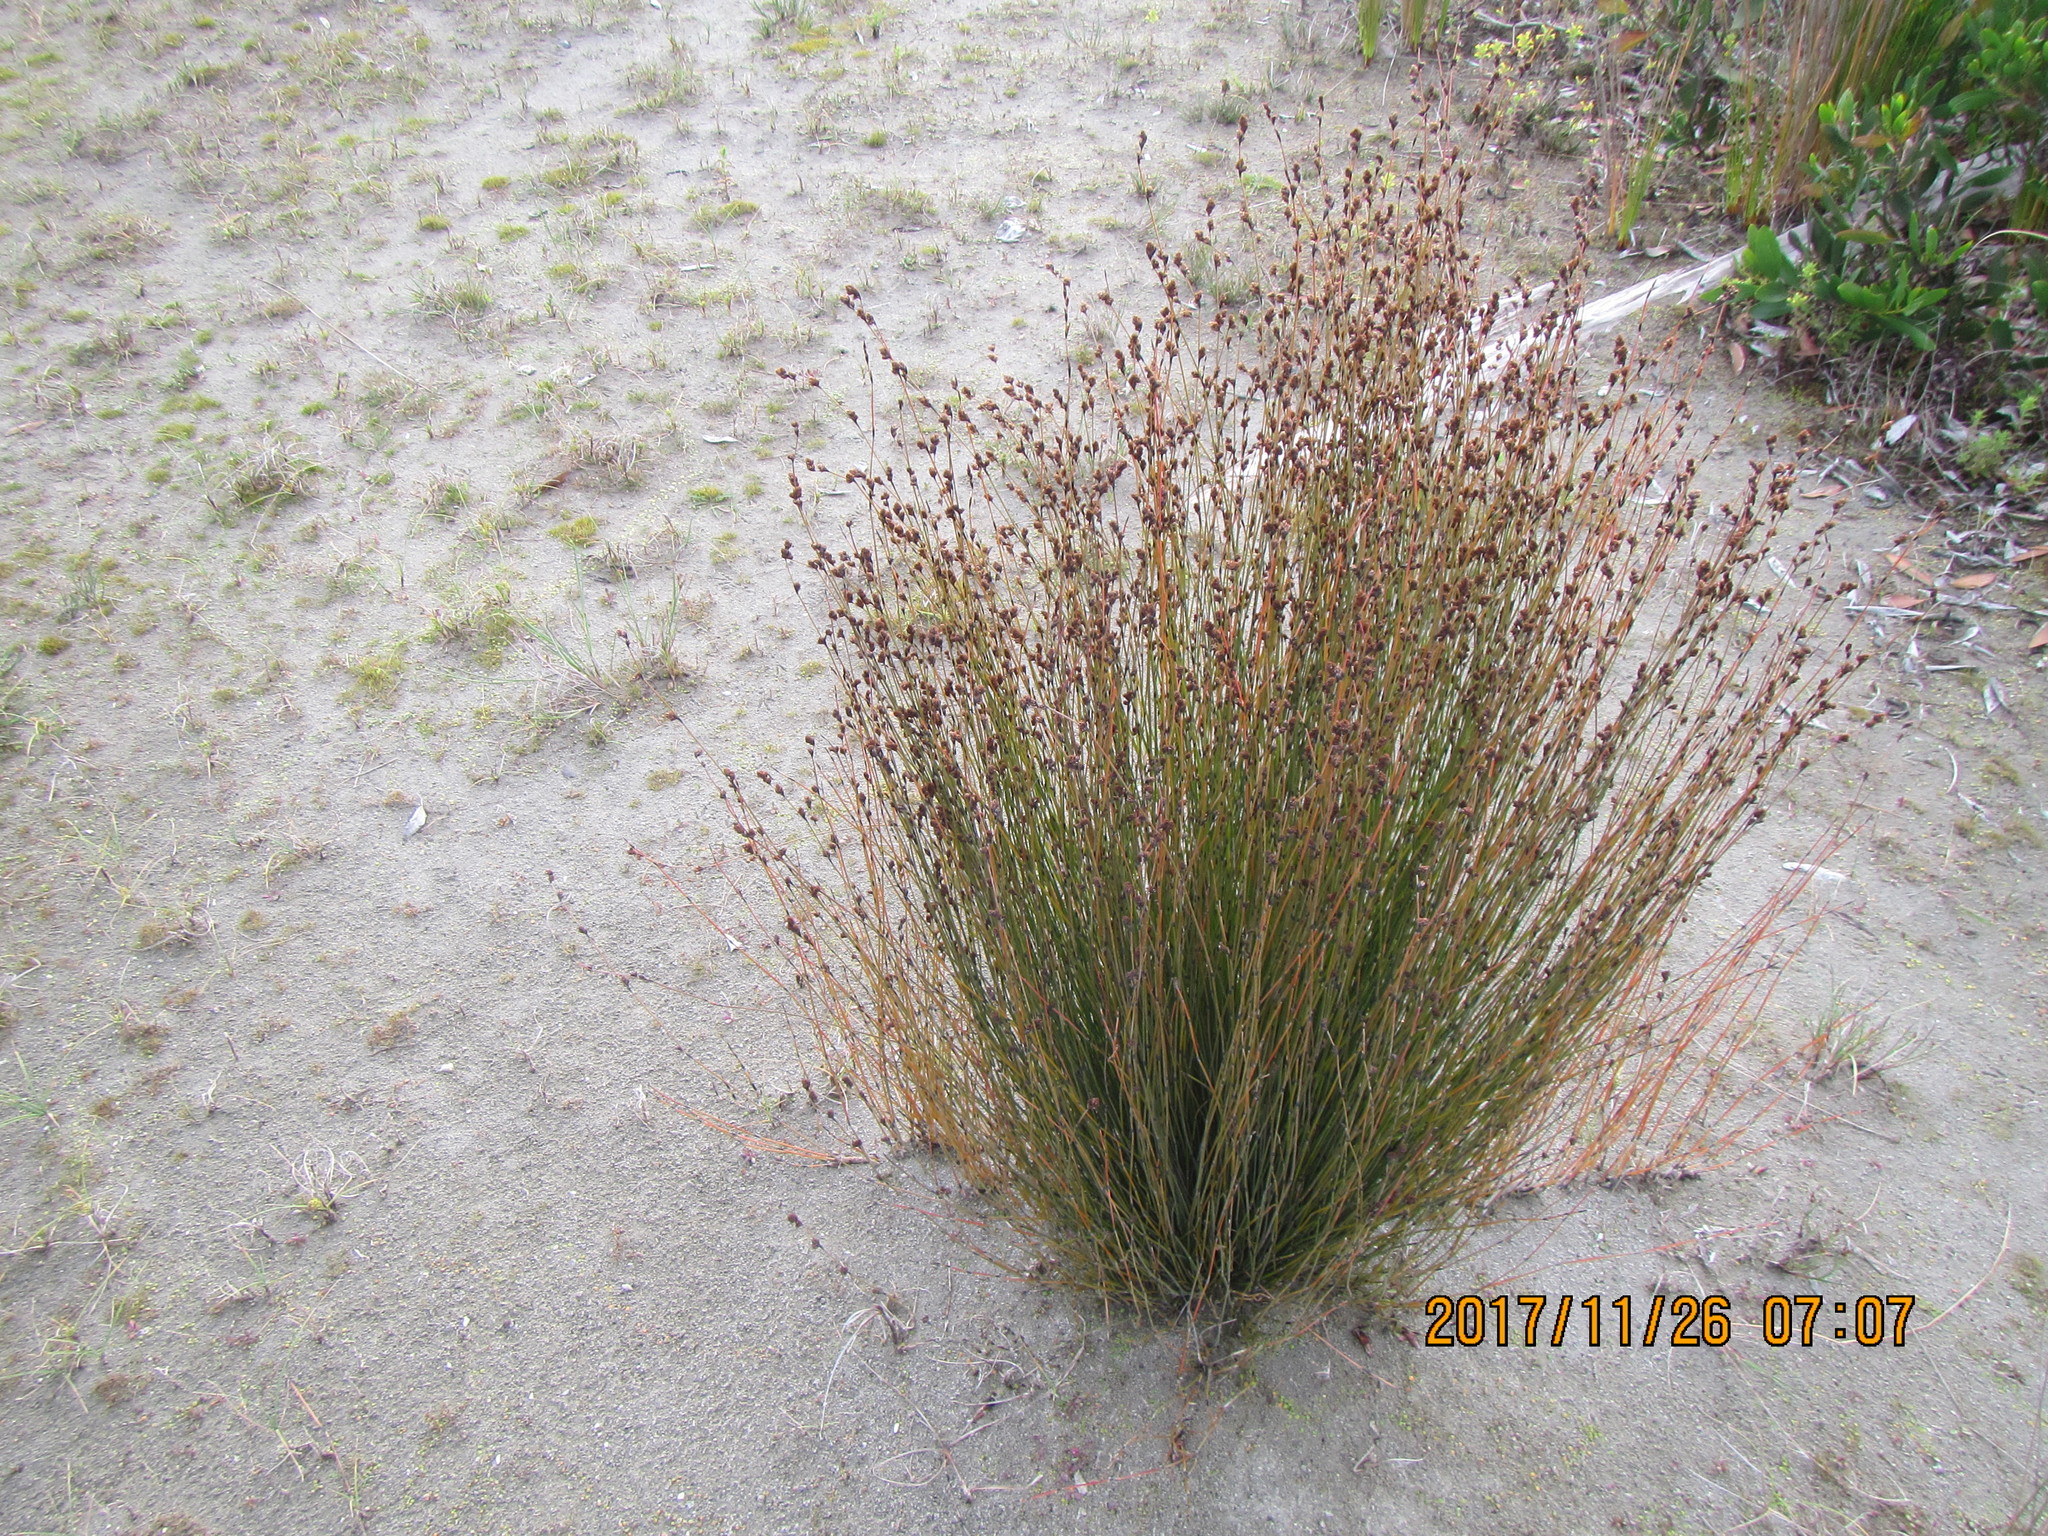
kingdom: Plantae
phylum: Tracheophyta
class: Liliopsida
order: Poales
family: Restionaceae
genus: Apodasmia
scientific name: Apodasmia similis
